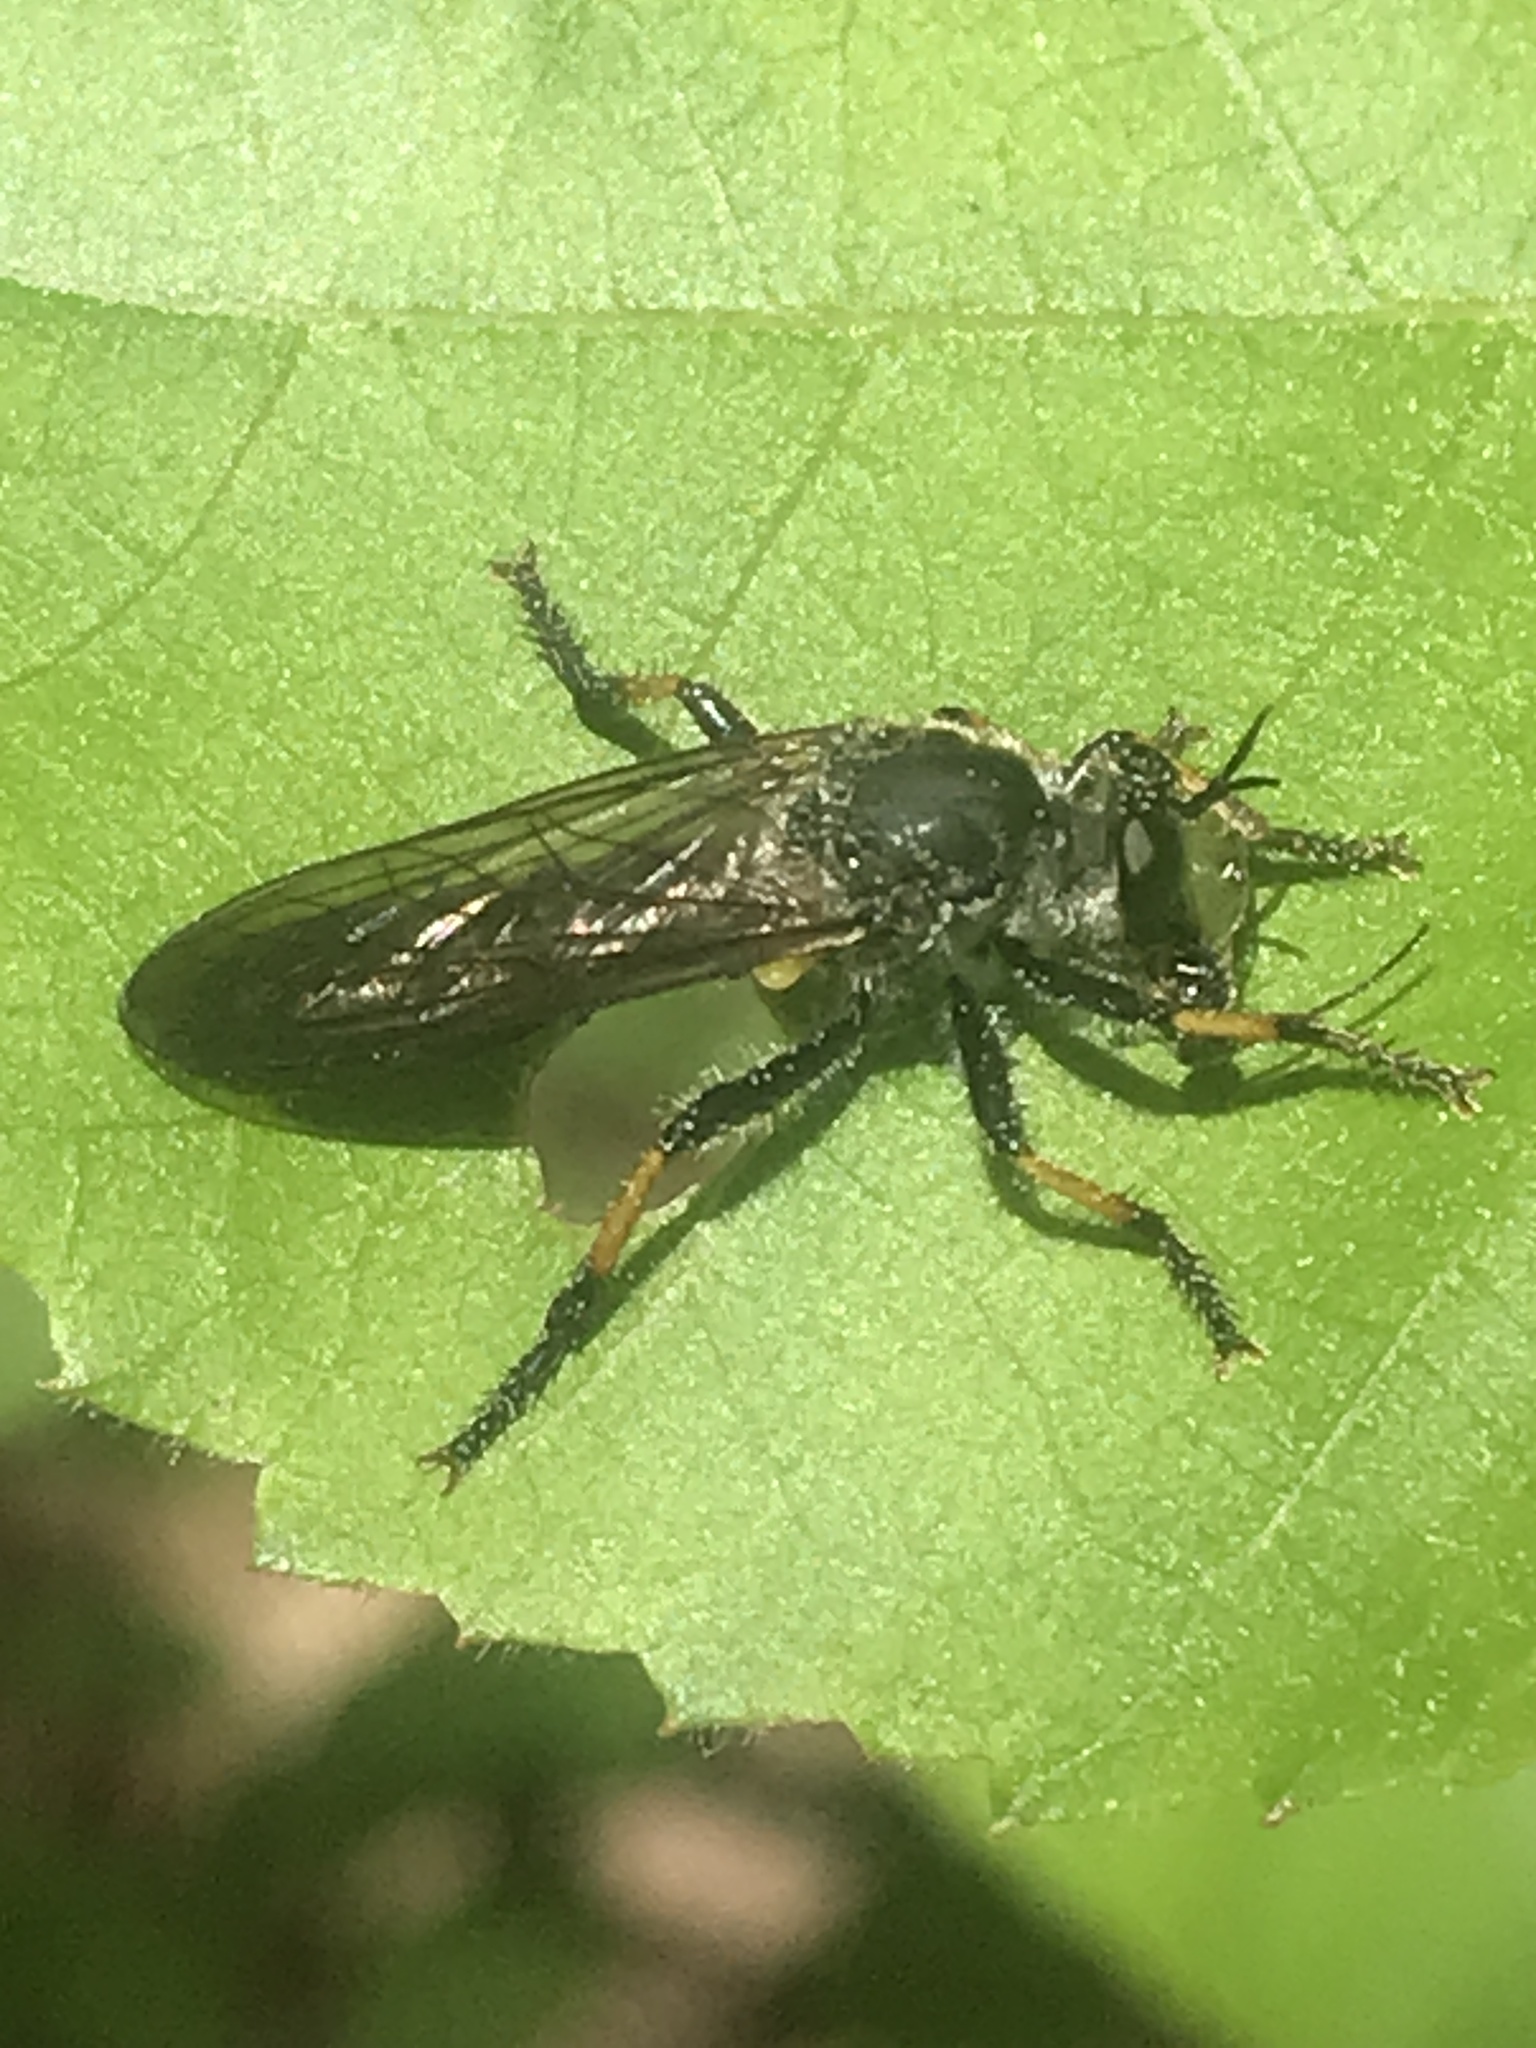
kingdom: Animalia
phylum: Arthropoda
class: Insecta
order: Diptera
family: Asilidae
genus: Echthodopa
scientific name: Echthodopa
